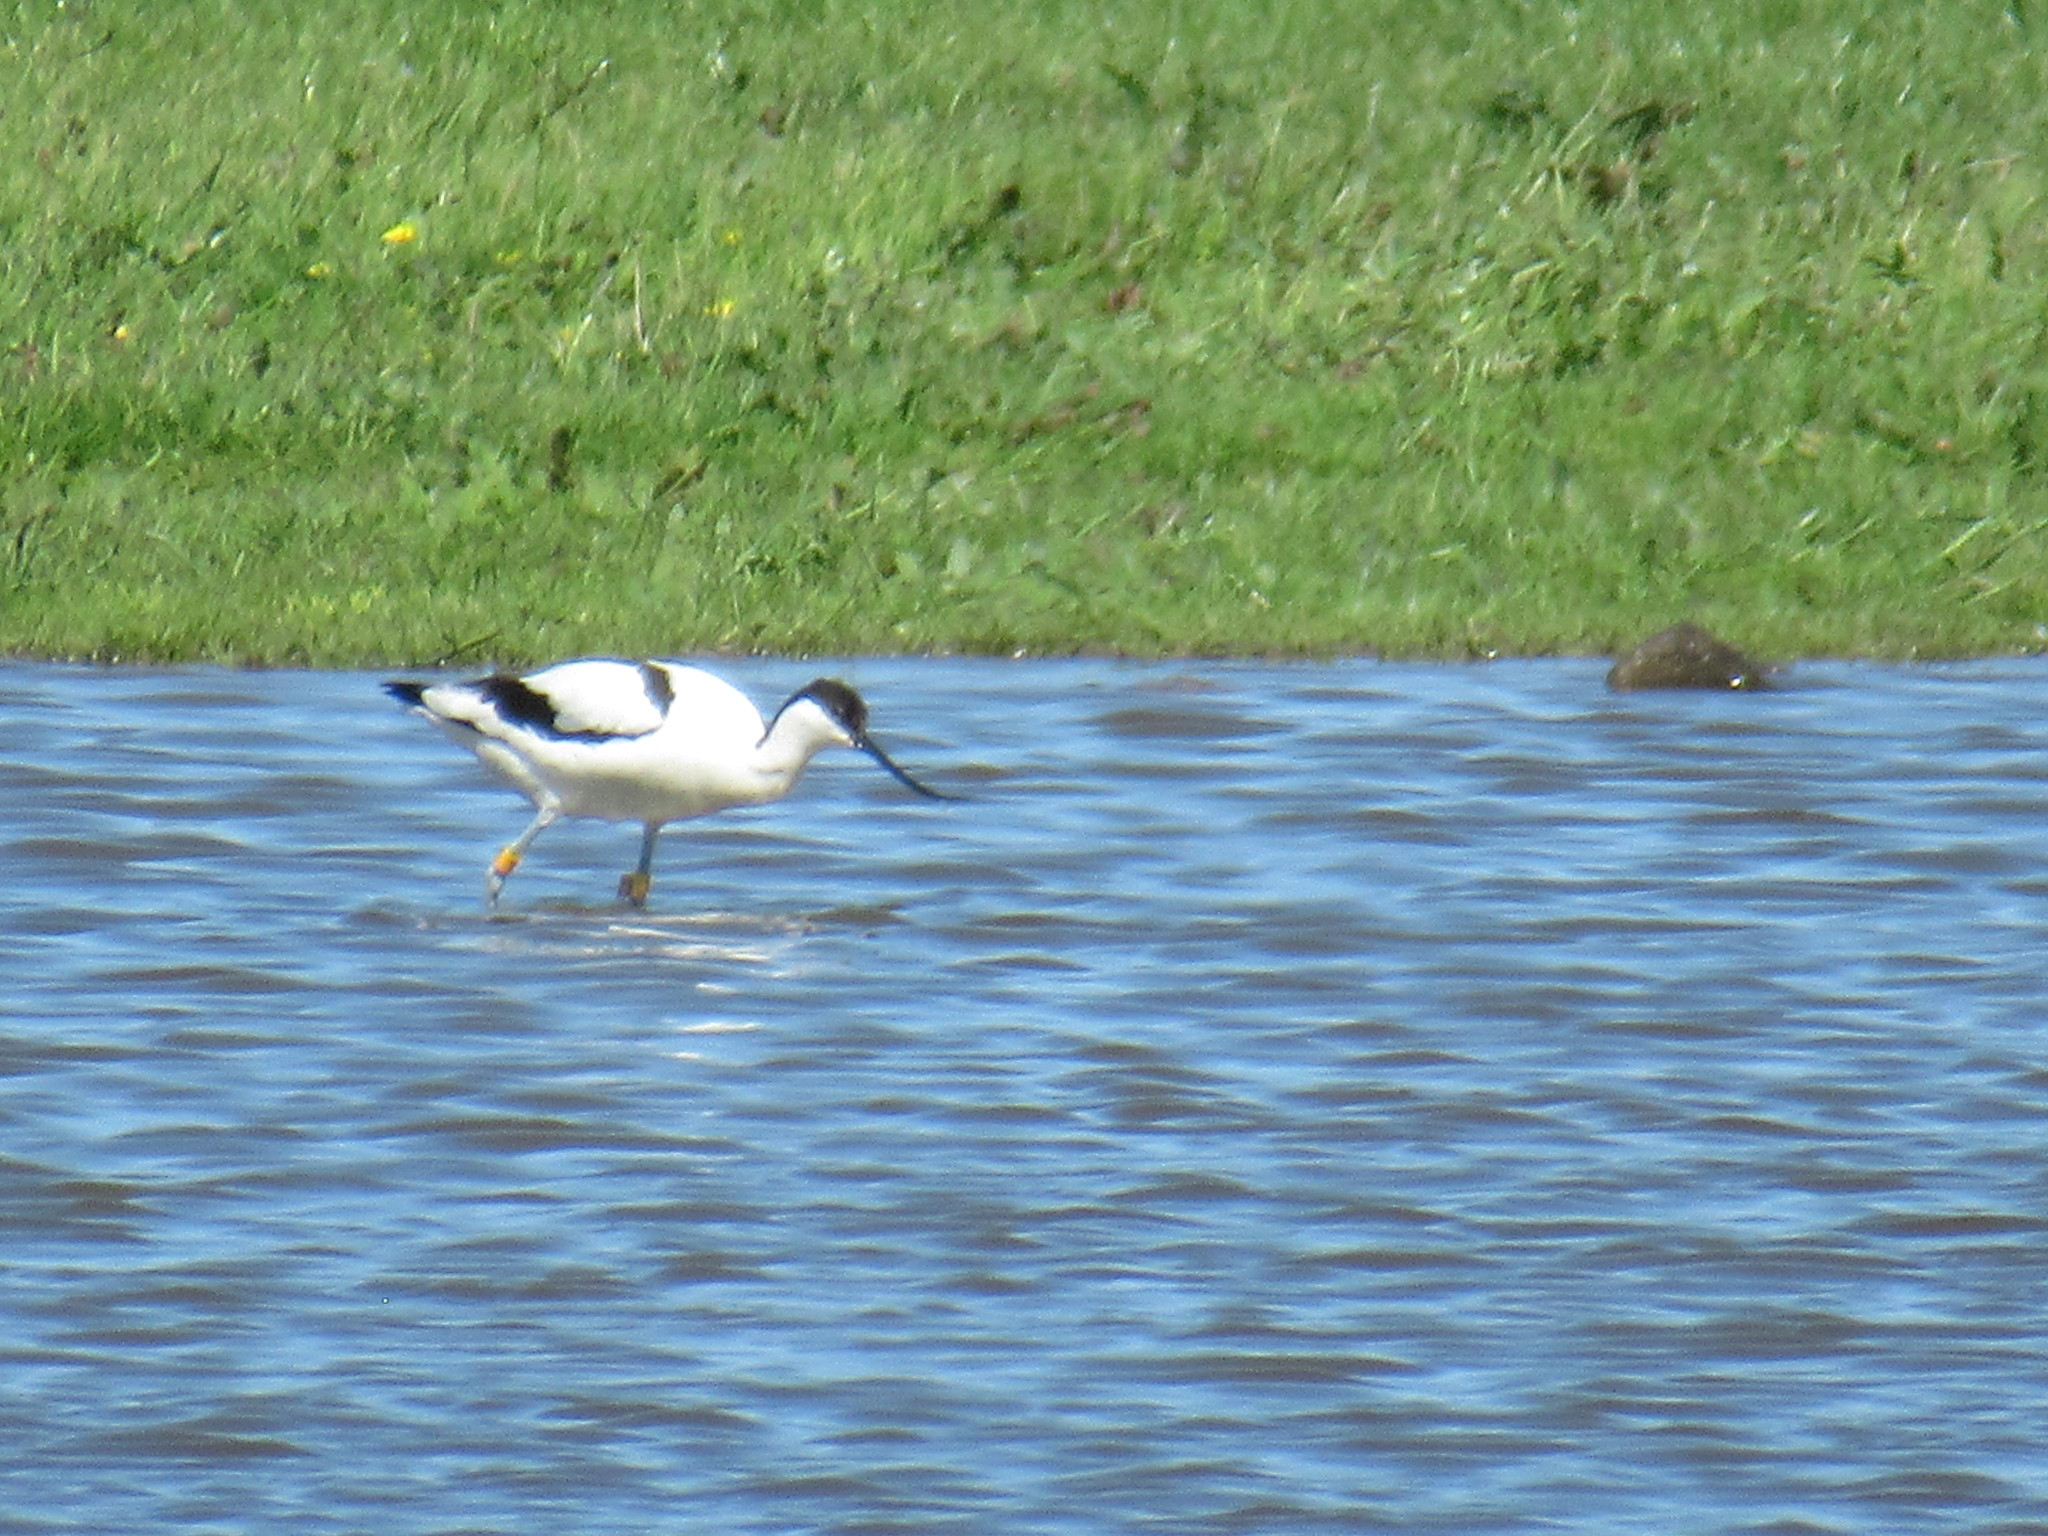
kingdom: Animalia
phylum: Chordata
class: Aves
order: Charadriiformes
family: Recurvirostridae
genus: Recurvirostra
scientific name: Recurvirostra avosetta
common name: Pied avocet
